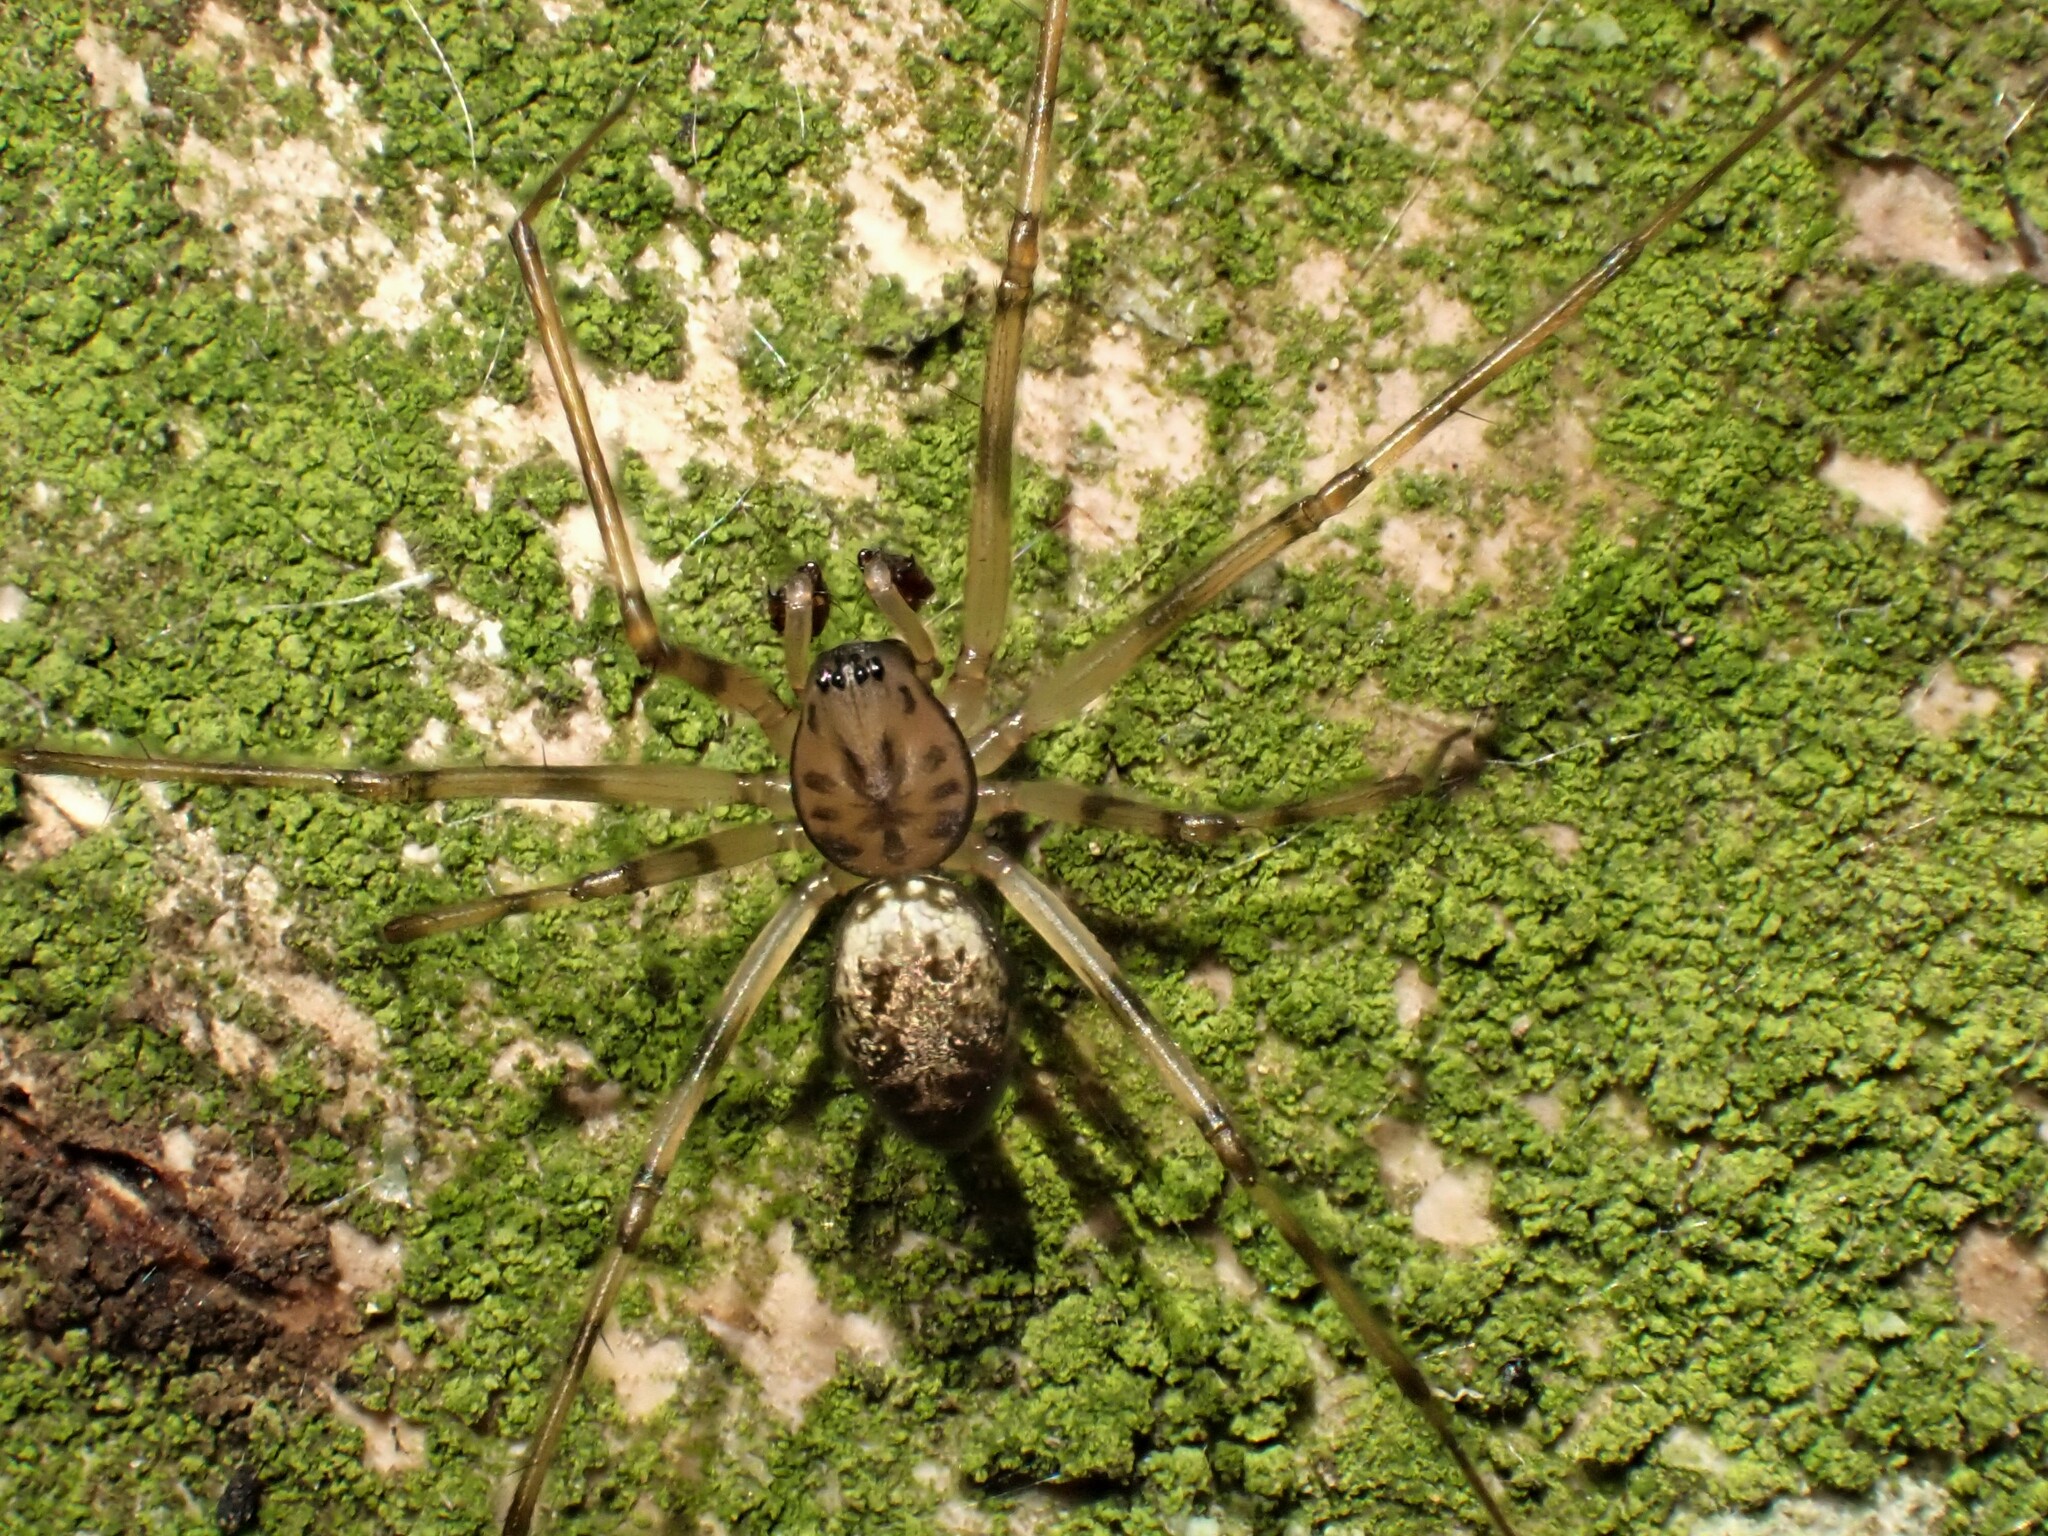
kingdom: Animalia
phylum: Arthropoda
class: Arachnida
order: Araneae
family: Linyphiidae
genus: Drapetisca
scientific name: Drapetisca socialis
